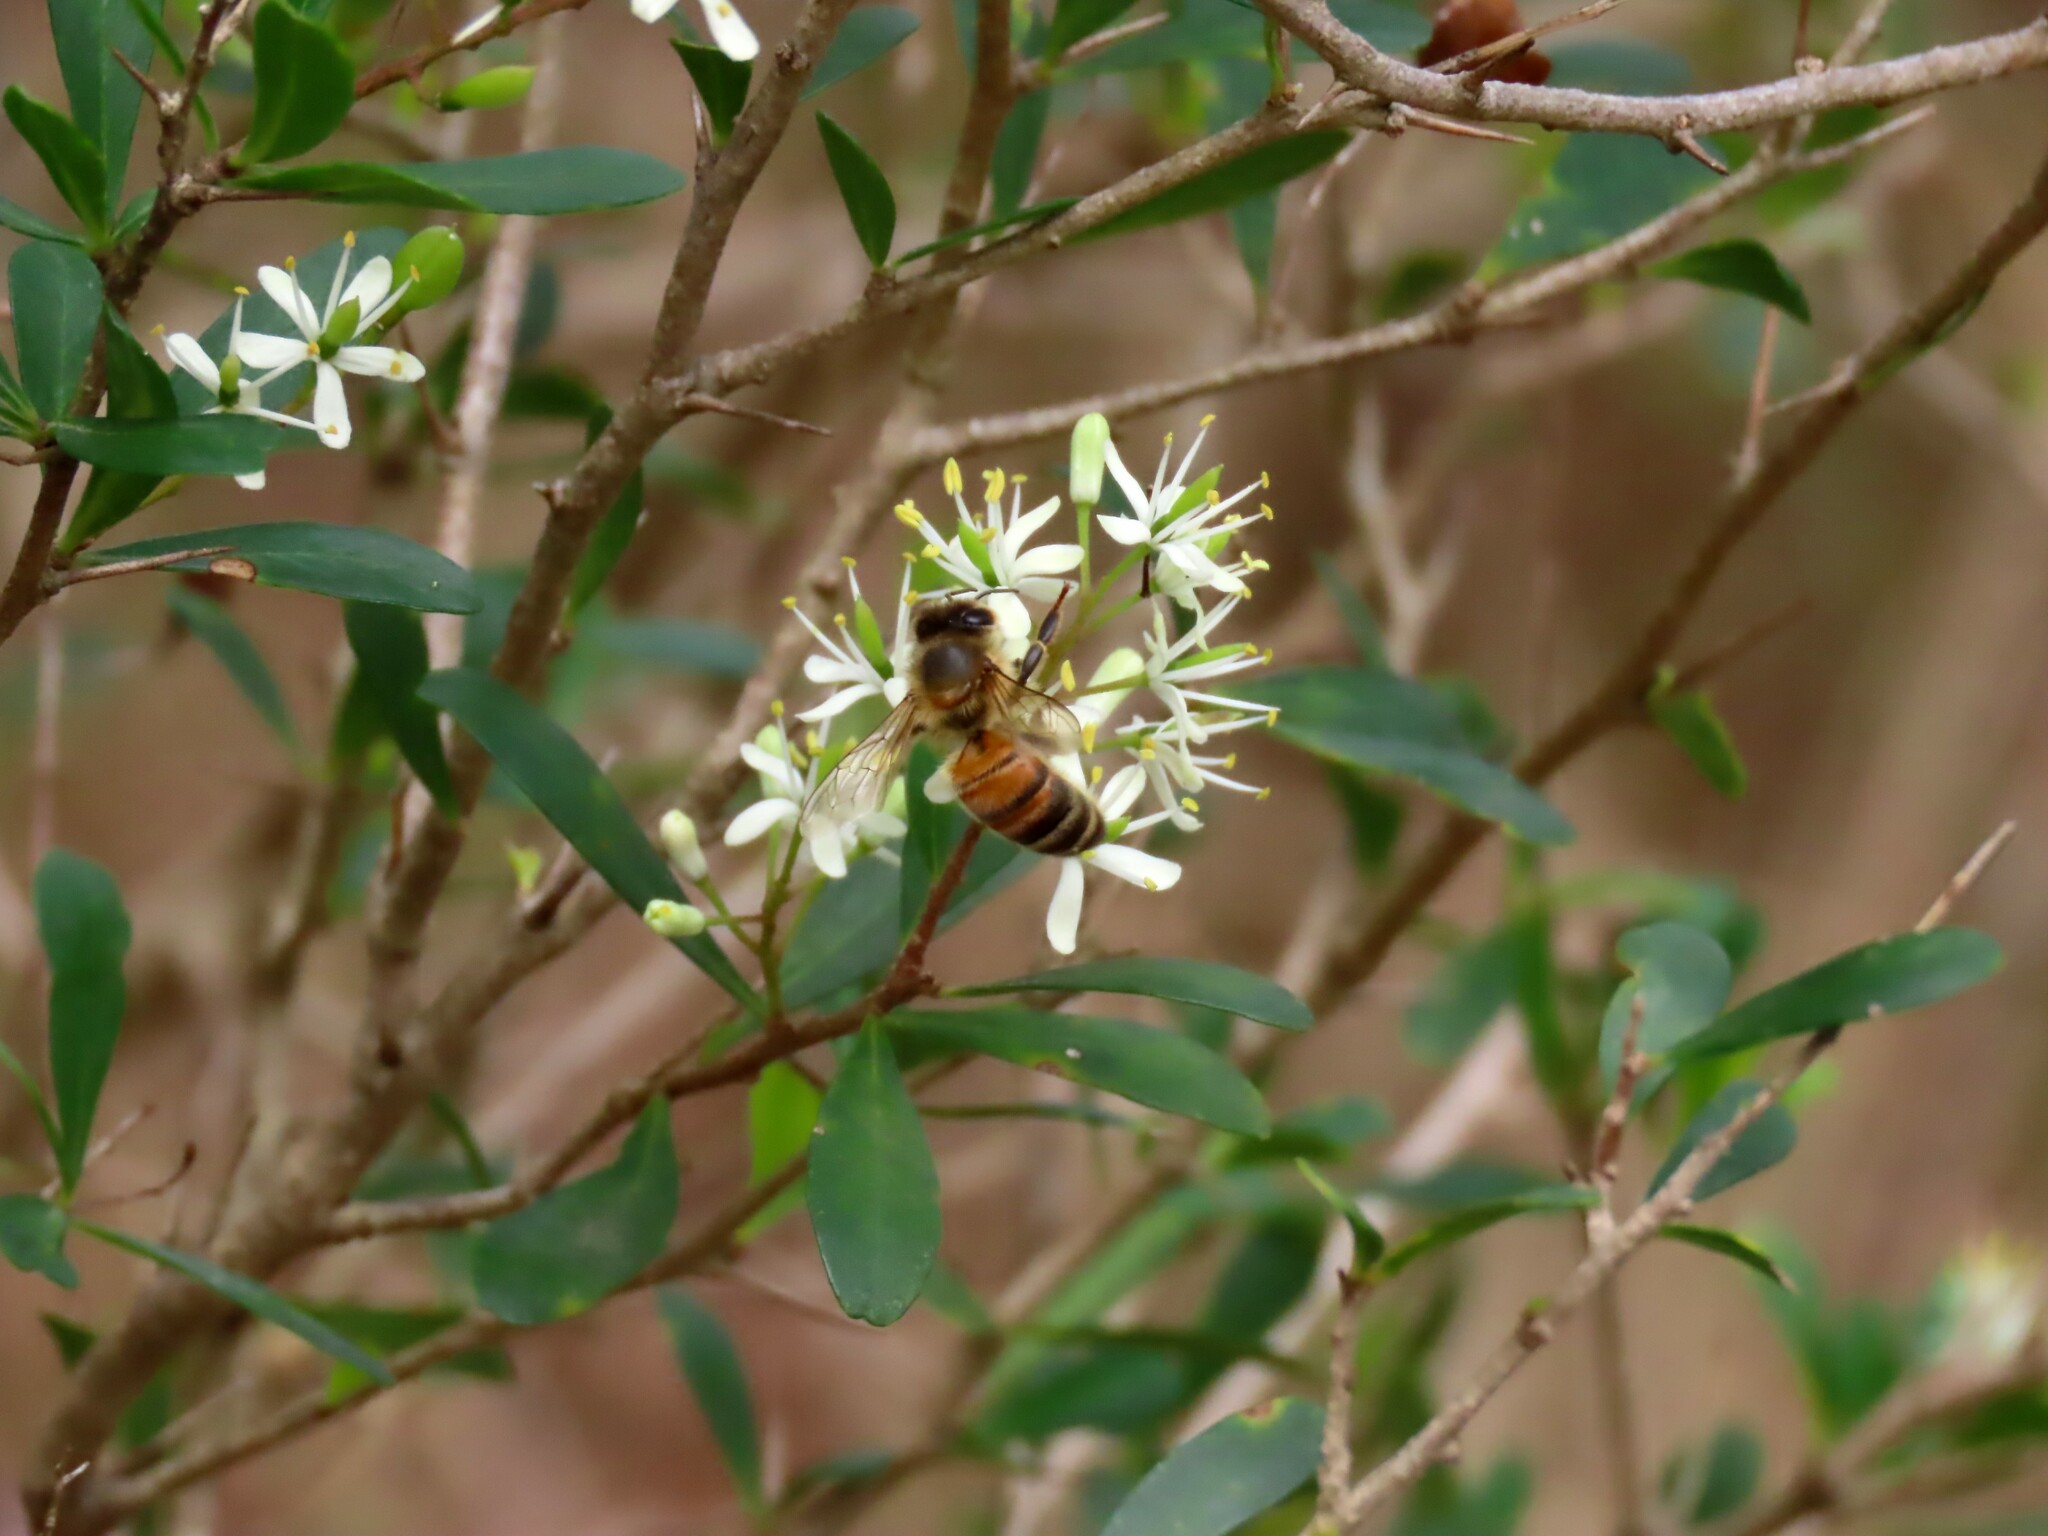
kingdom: Animalia
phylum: Arthropoda
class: Insecta
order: Hymenoptera
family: Apidae
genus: Apis
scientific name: Apis mellifera
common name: Honey bee
